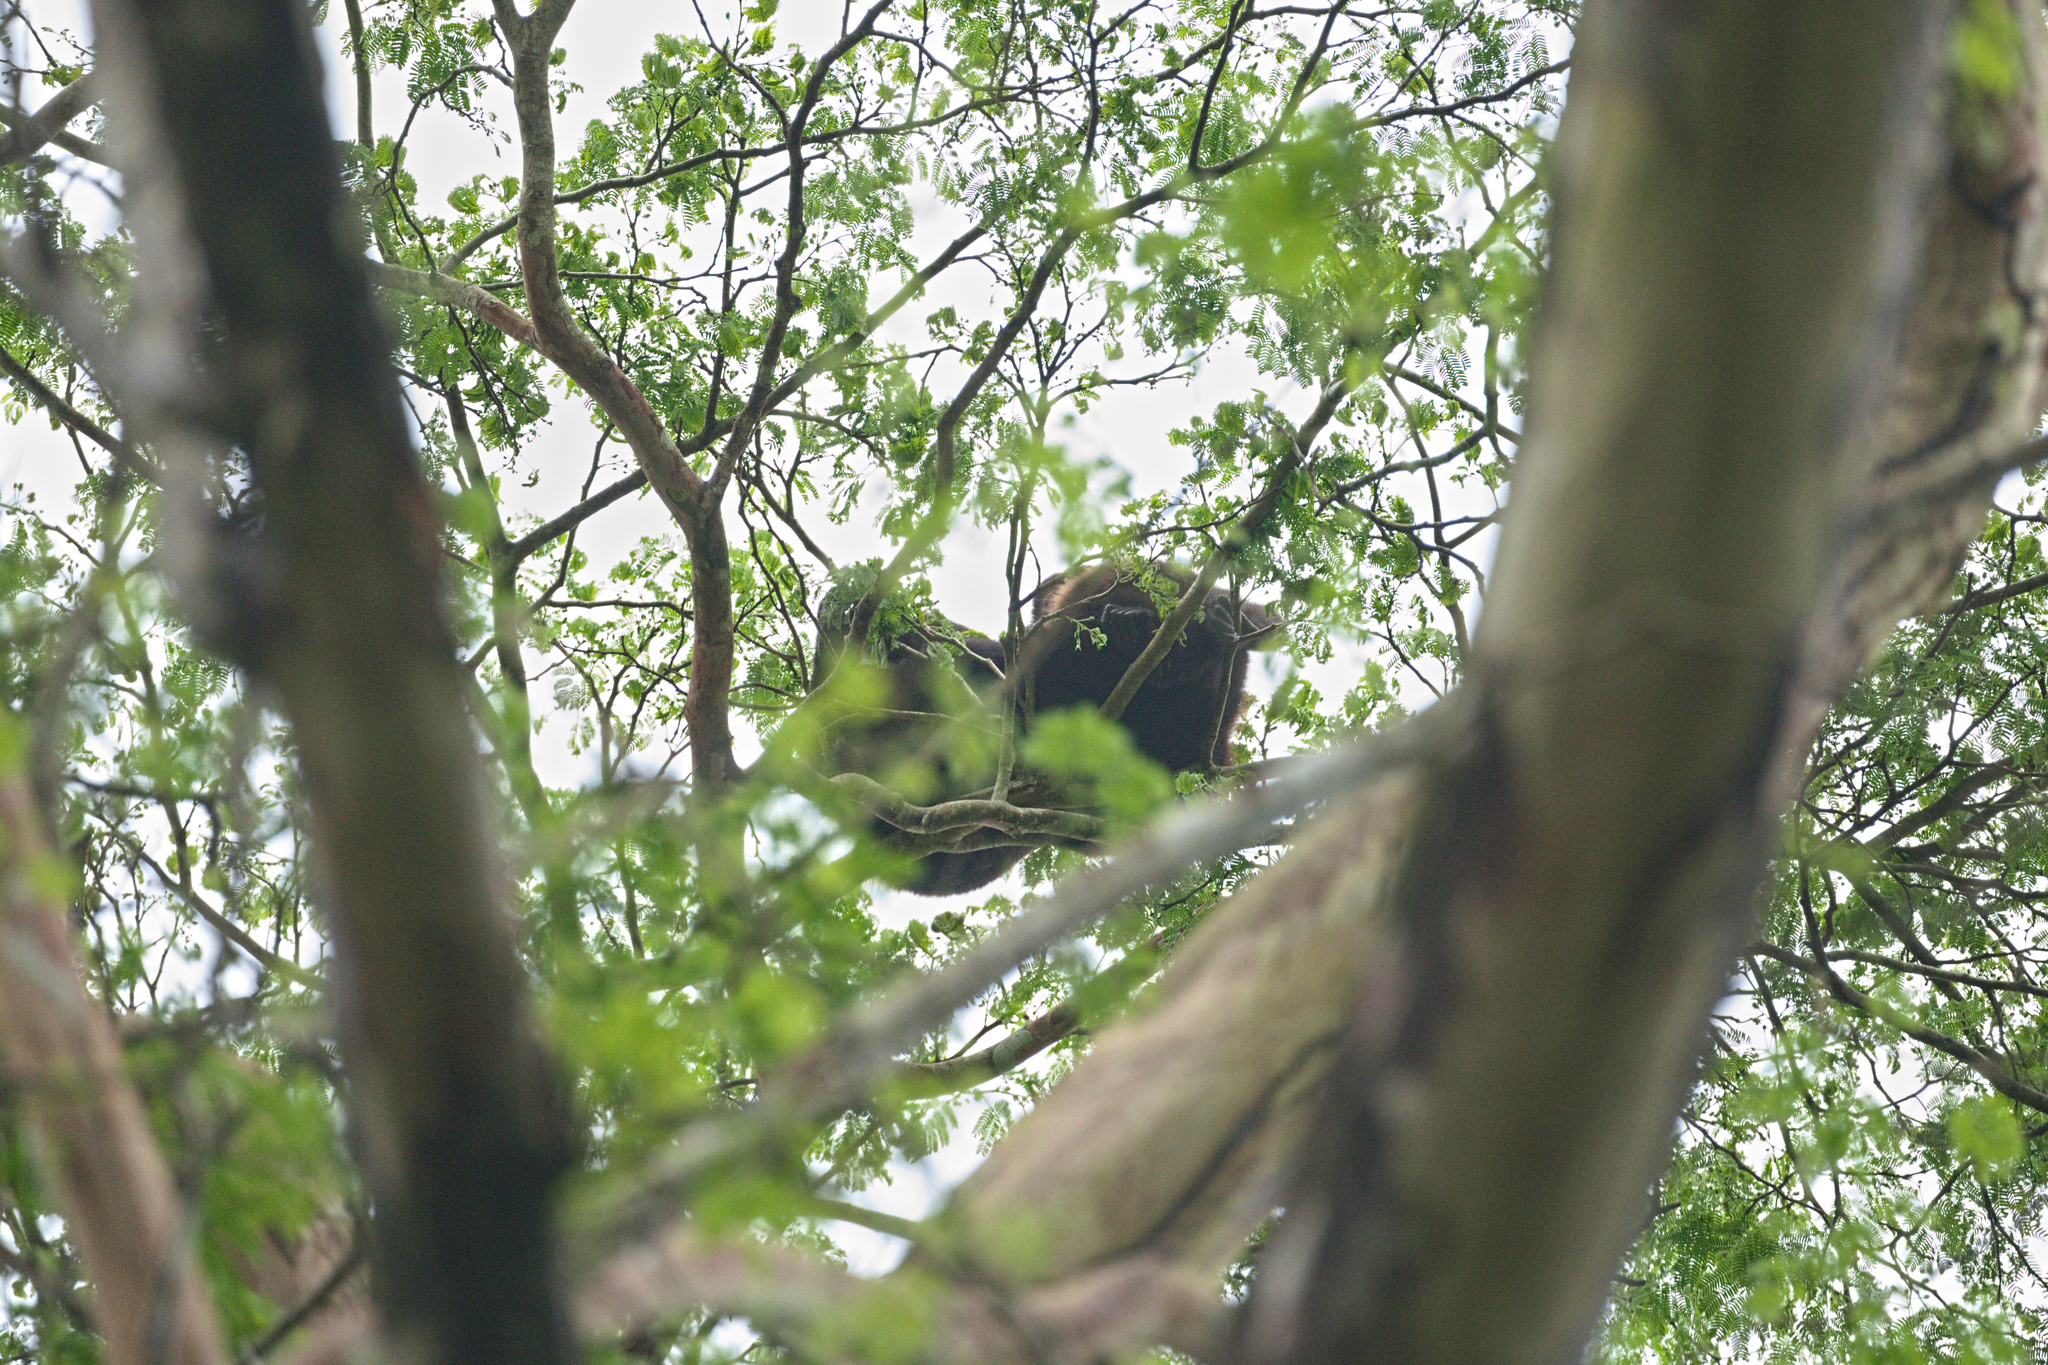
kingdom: Animalia
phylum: Chordata
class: Mammalia
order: Primates
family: Atelidae
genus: Alouatta
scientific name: Alouatta palliata
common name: Mantled howler
